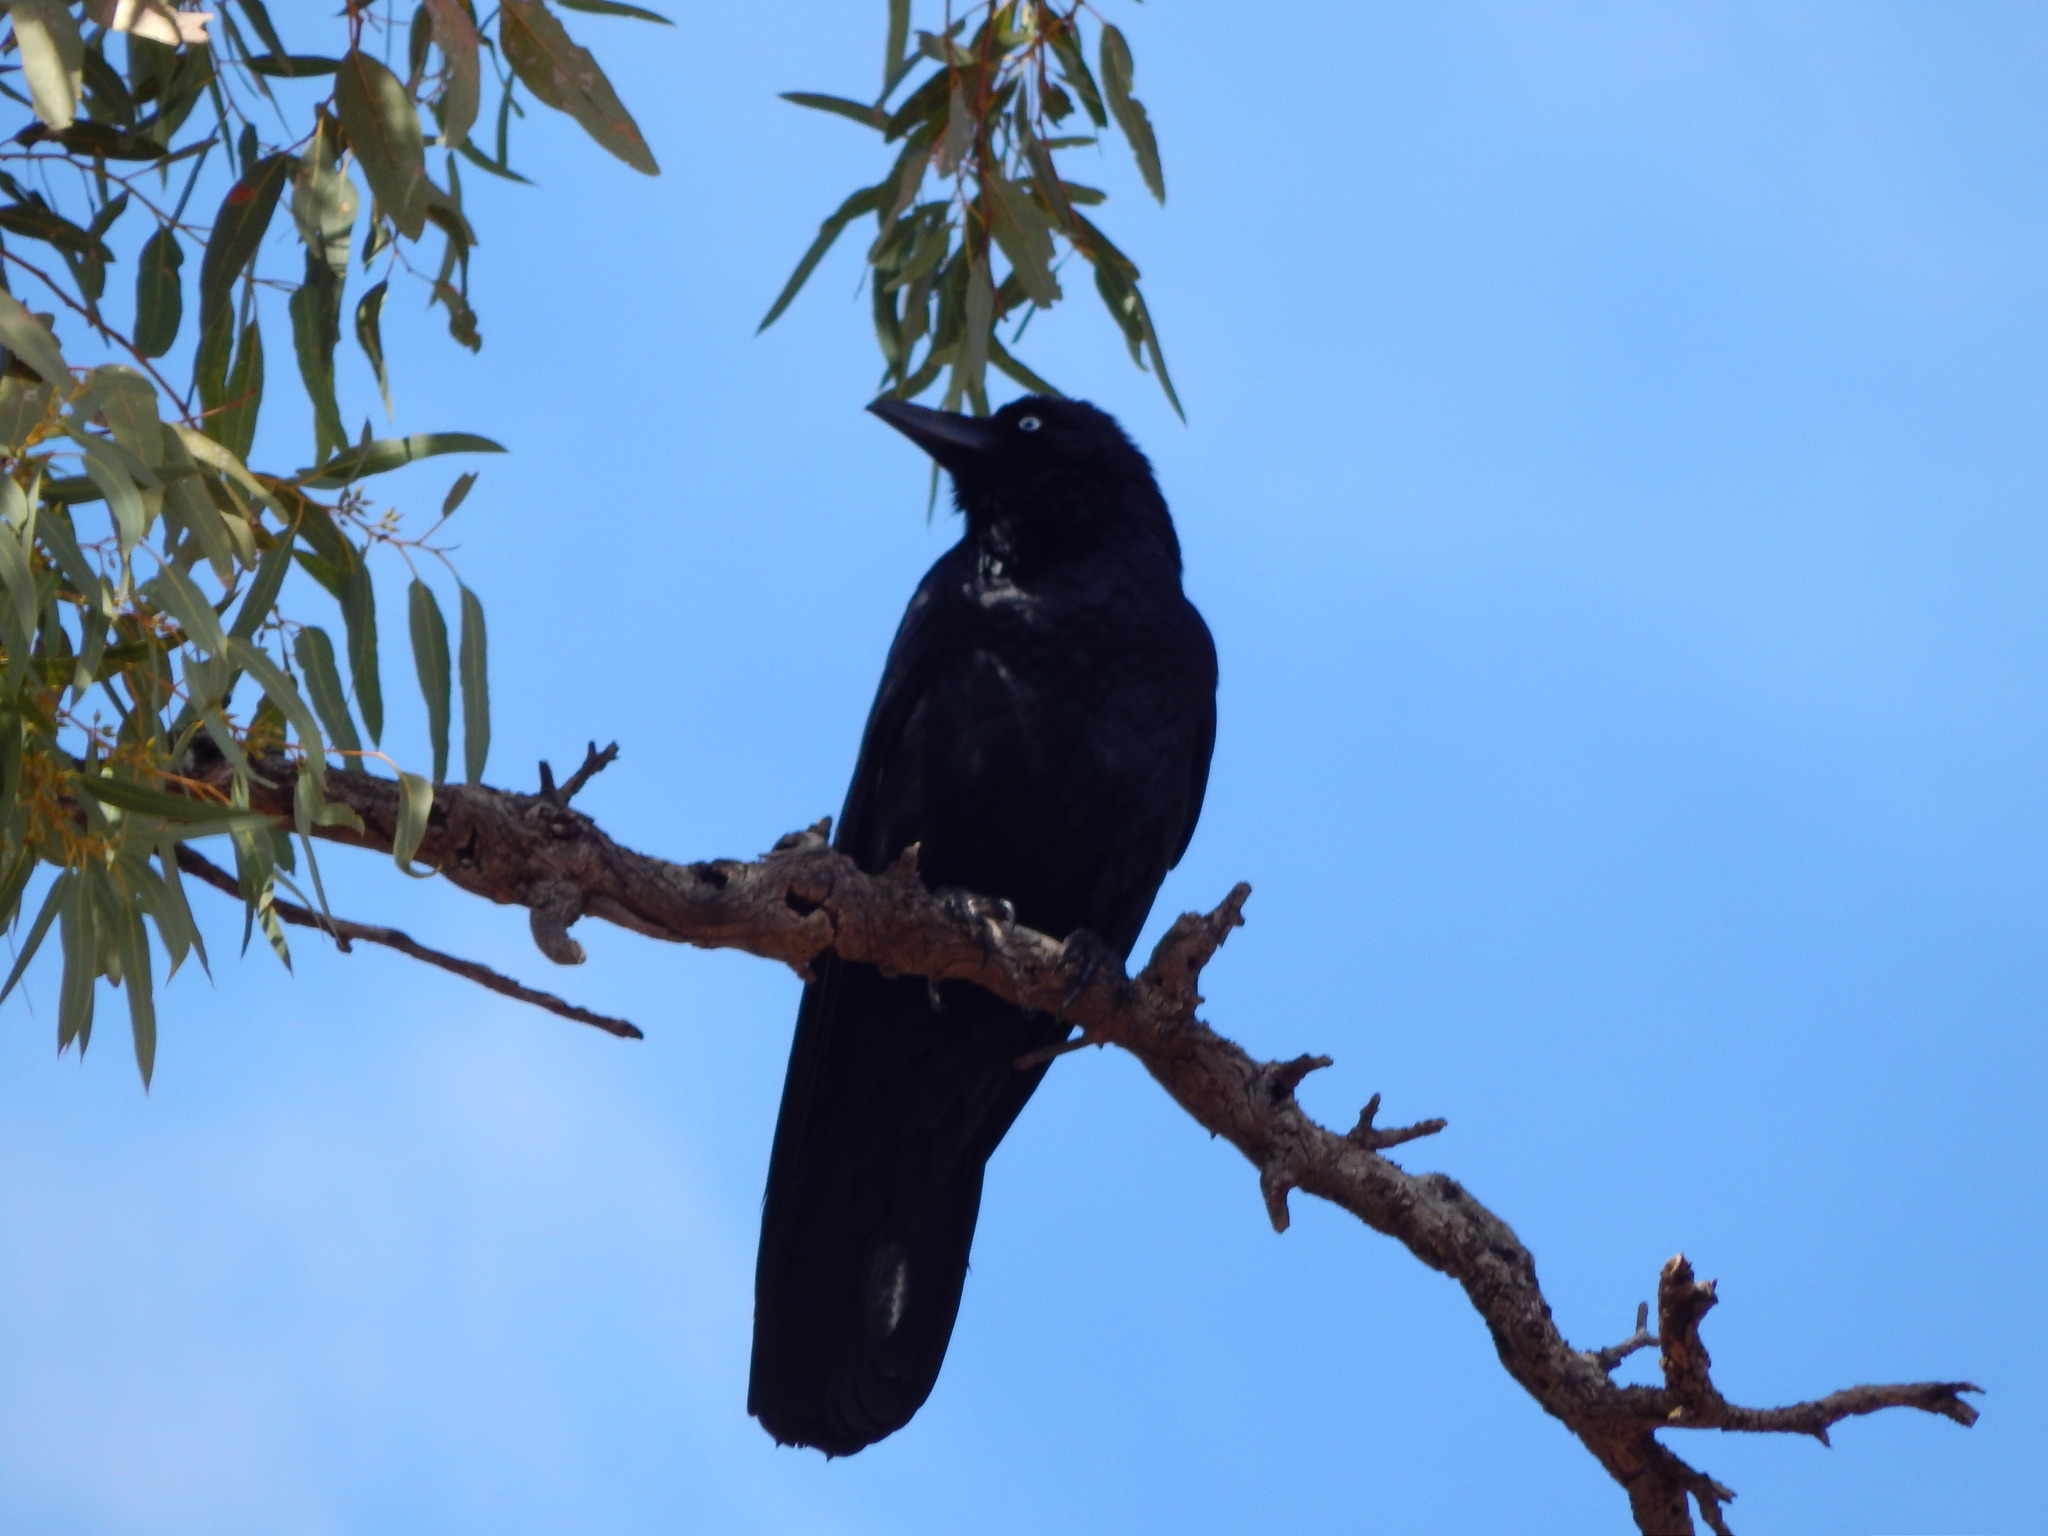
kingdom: Animalia
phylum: Chordata
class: Aves
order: Passeriformes
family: Corvidae
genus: Corvus
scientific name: Corvus
